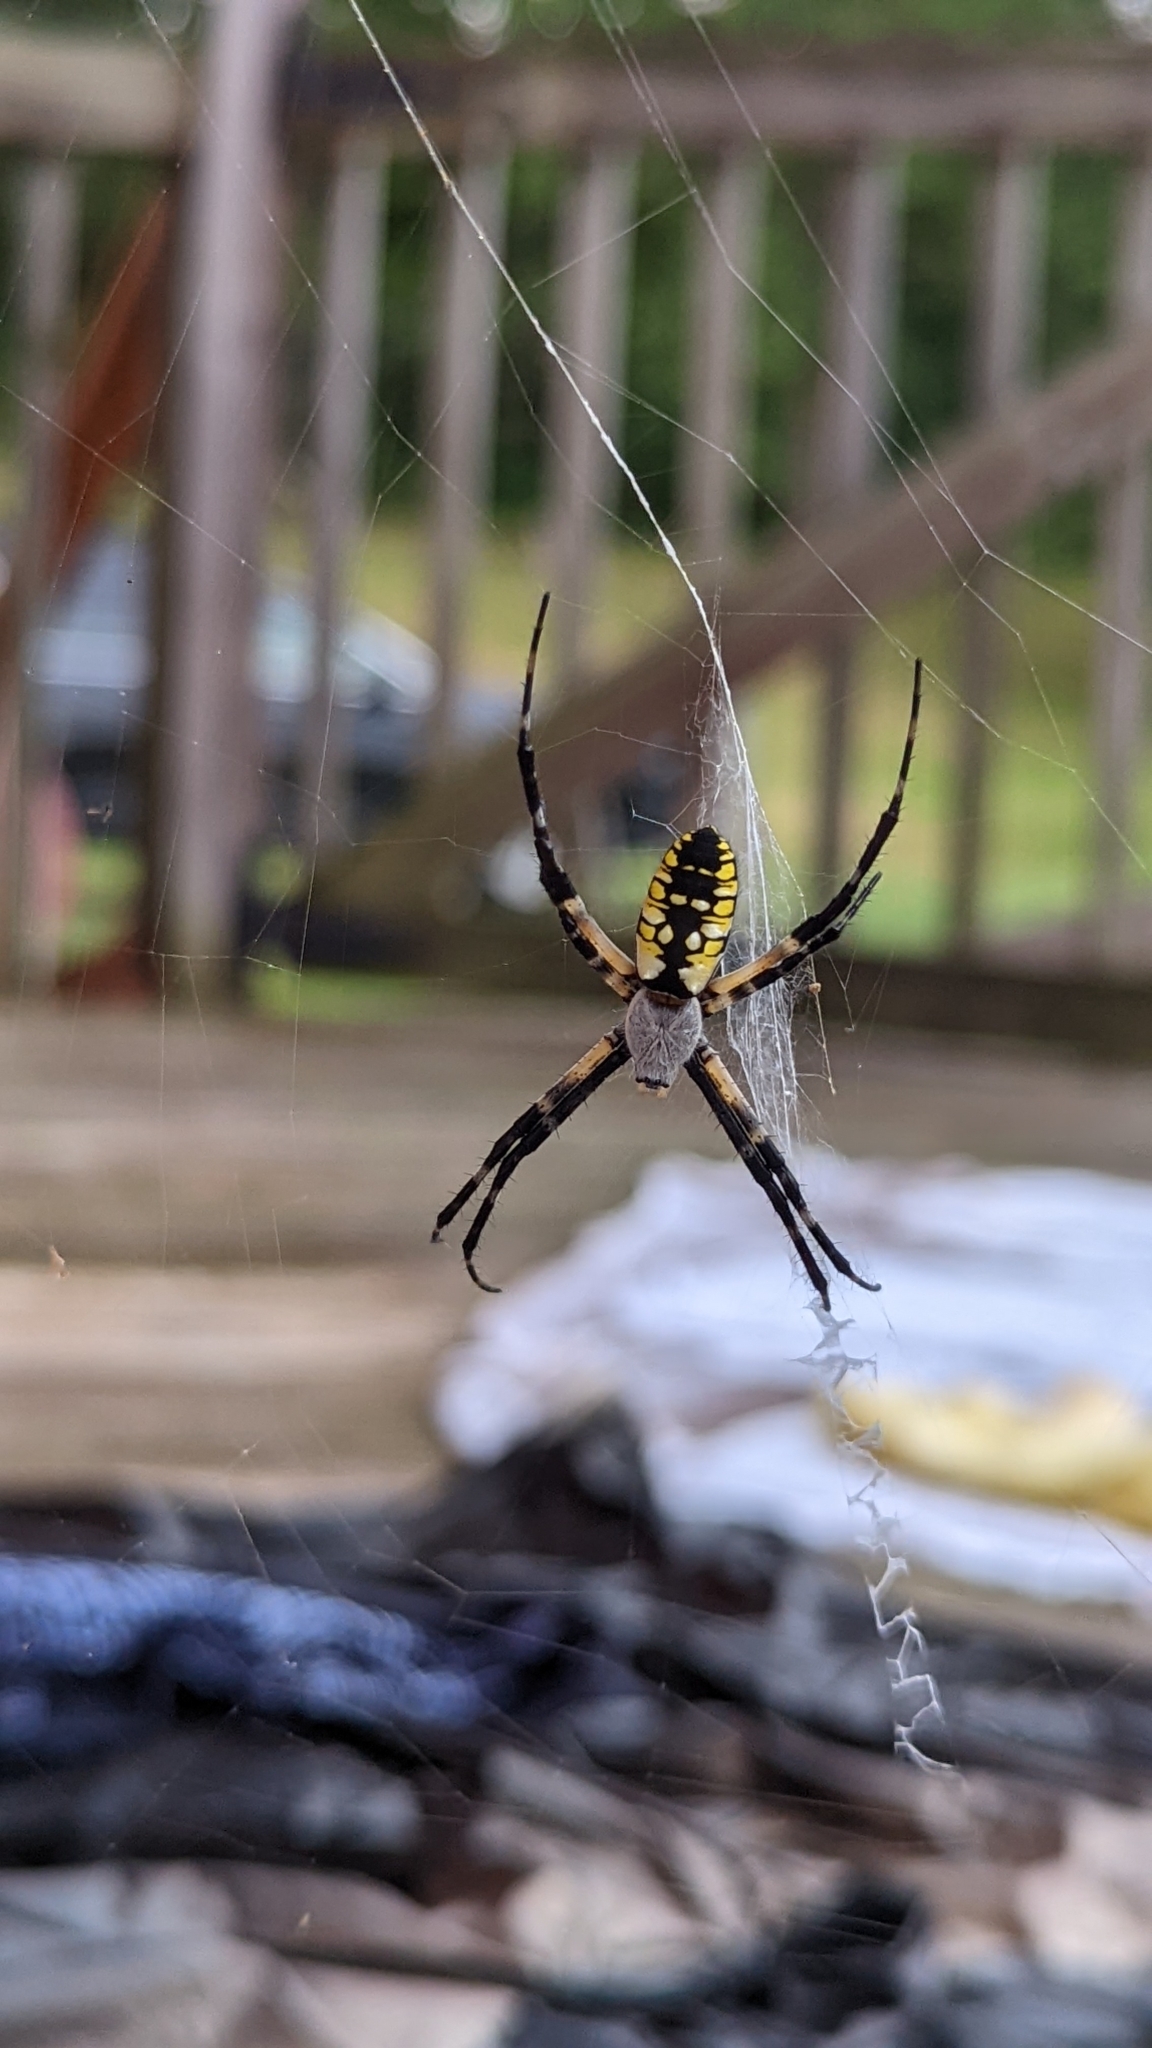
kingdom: Animalia
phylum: Arthropoda
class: Arachnida
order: Araneae
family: Araneidae
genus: Argiope
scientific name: Argiope aurantia
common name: Orb weavers
